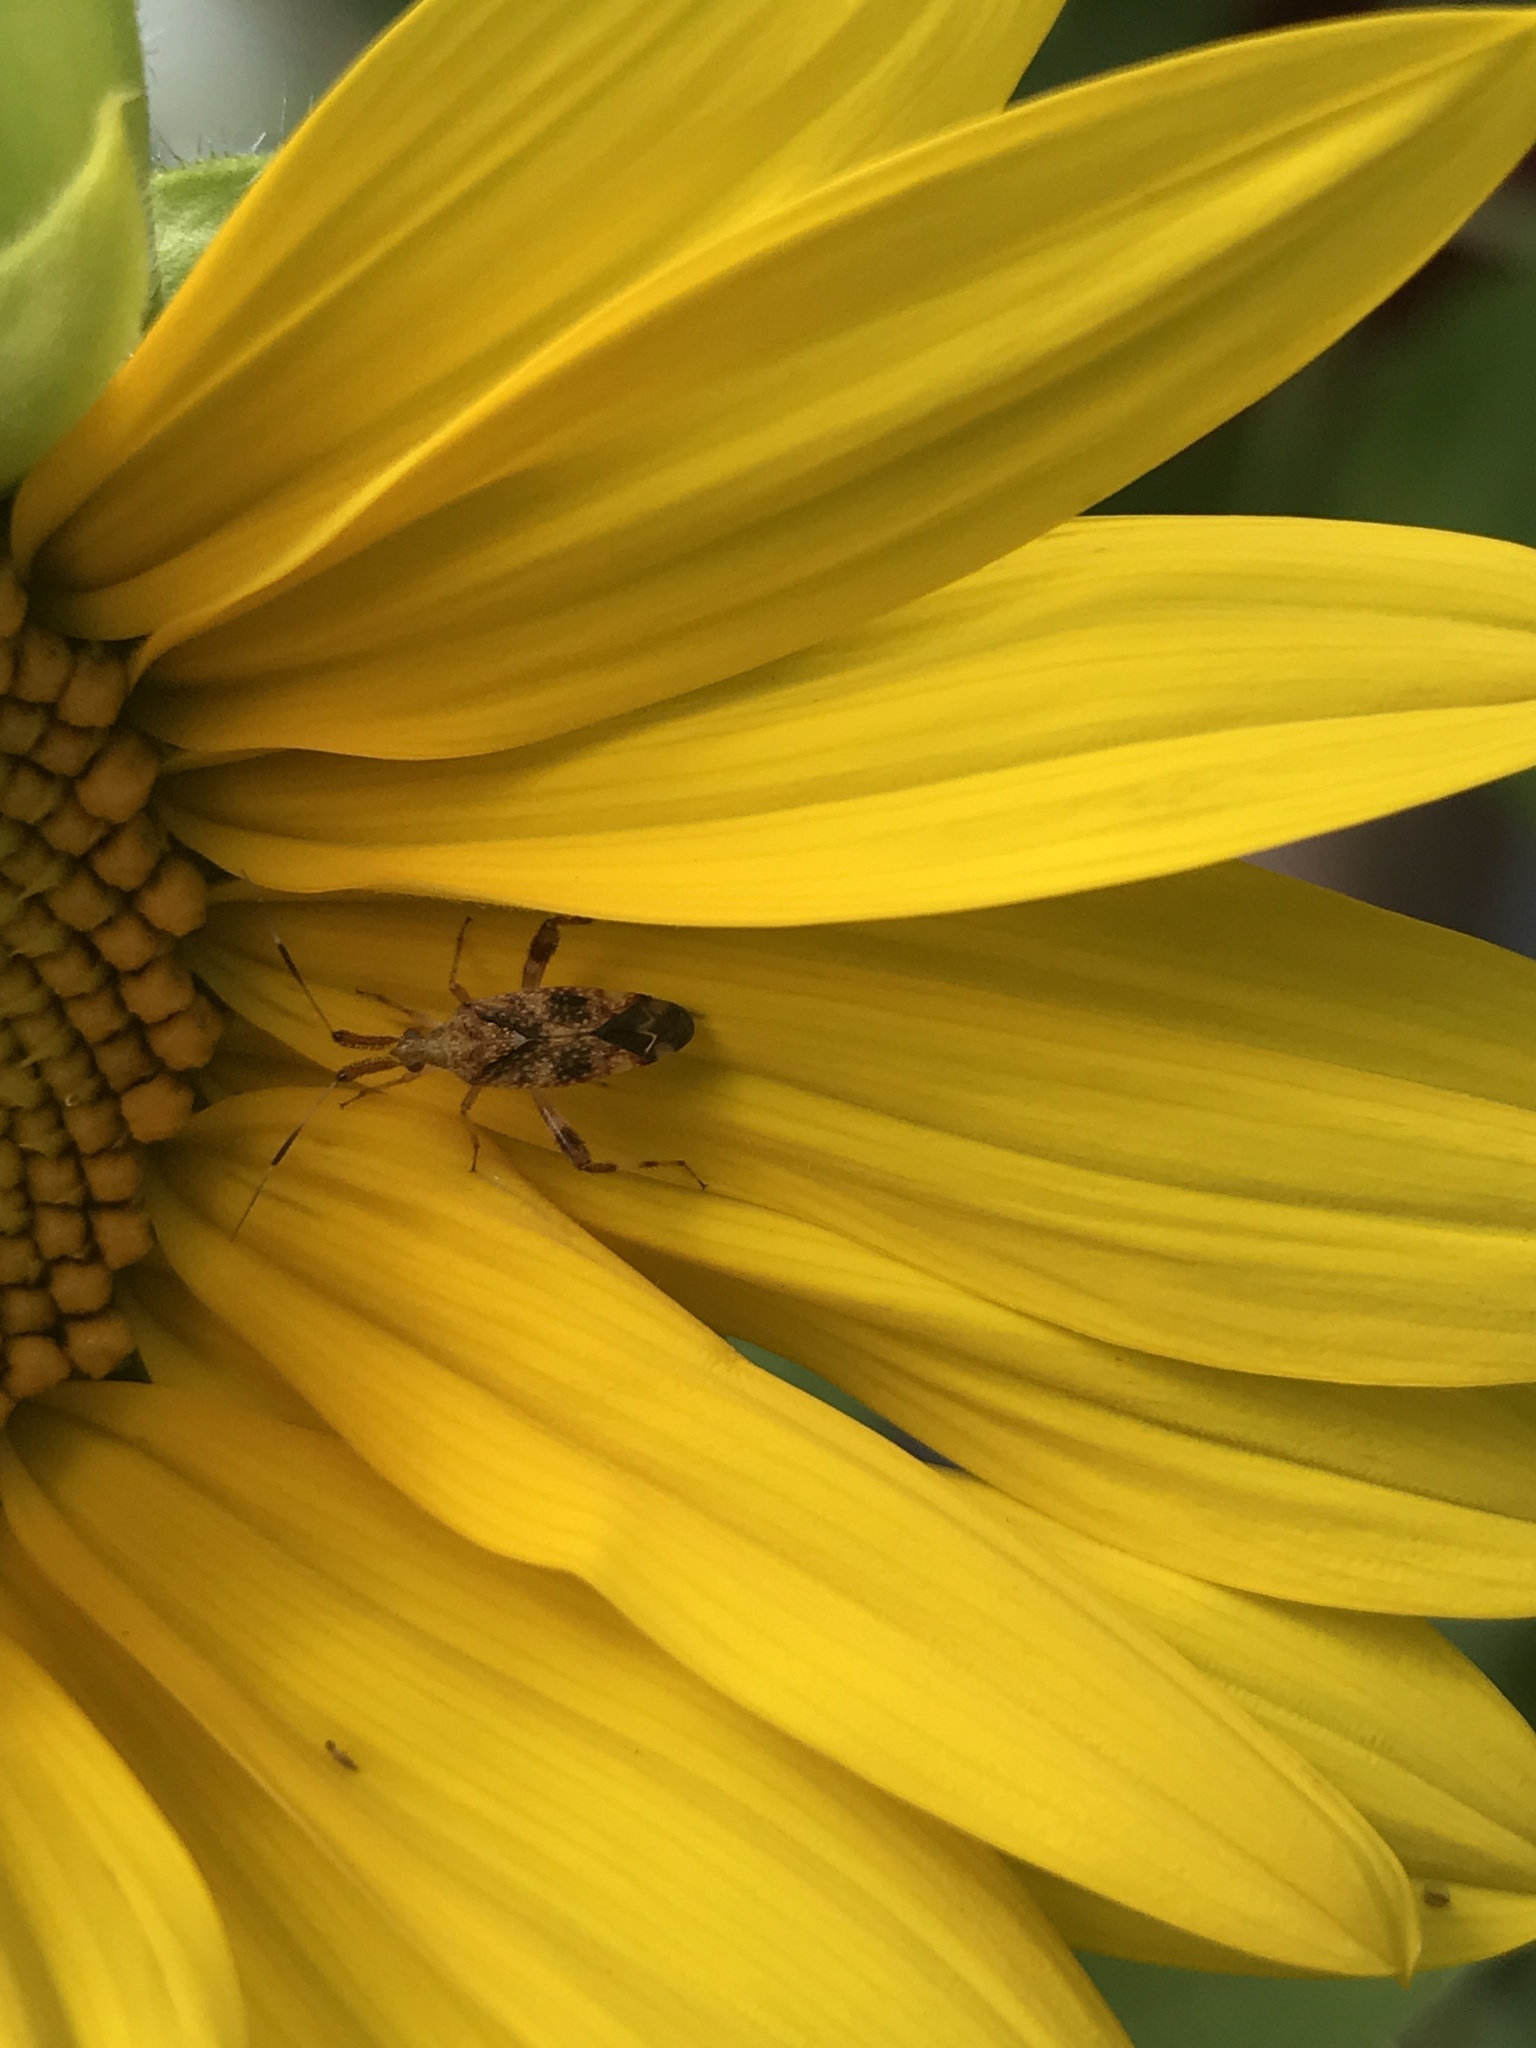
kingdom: Animalia
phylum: Arthropoda
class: Insecta
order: Hemiptera
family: Miridae
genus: Neurocolpus
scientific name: Neurocolpus nubilus
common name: Clouded plant bug
